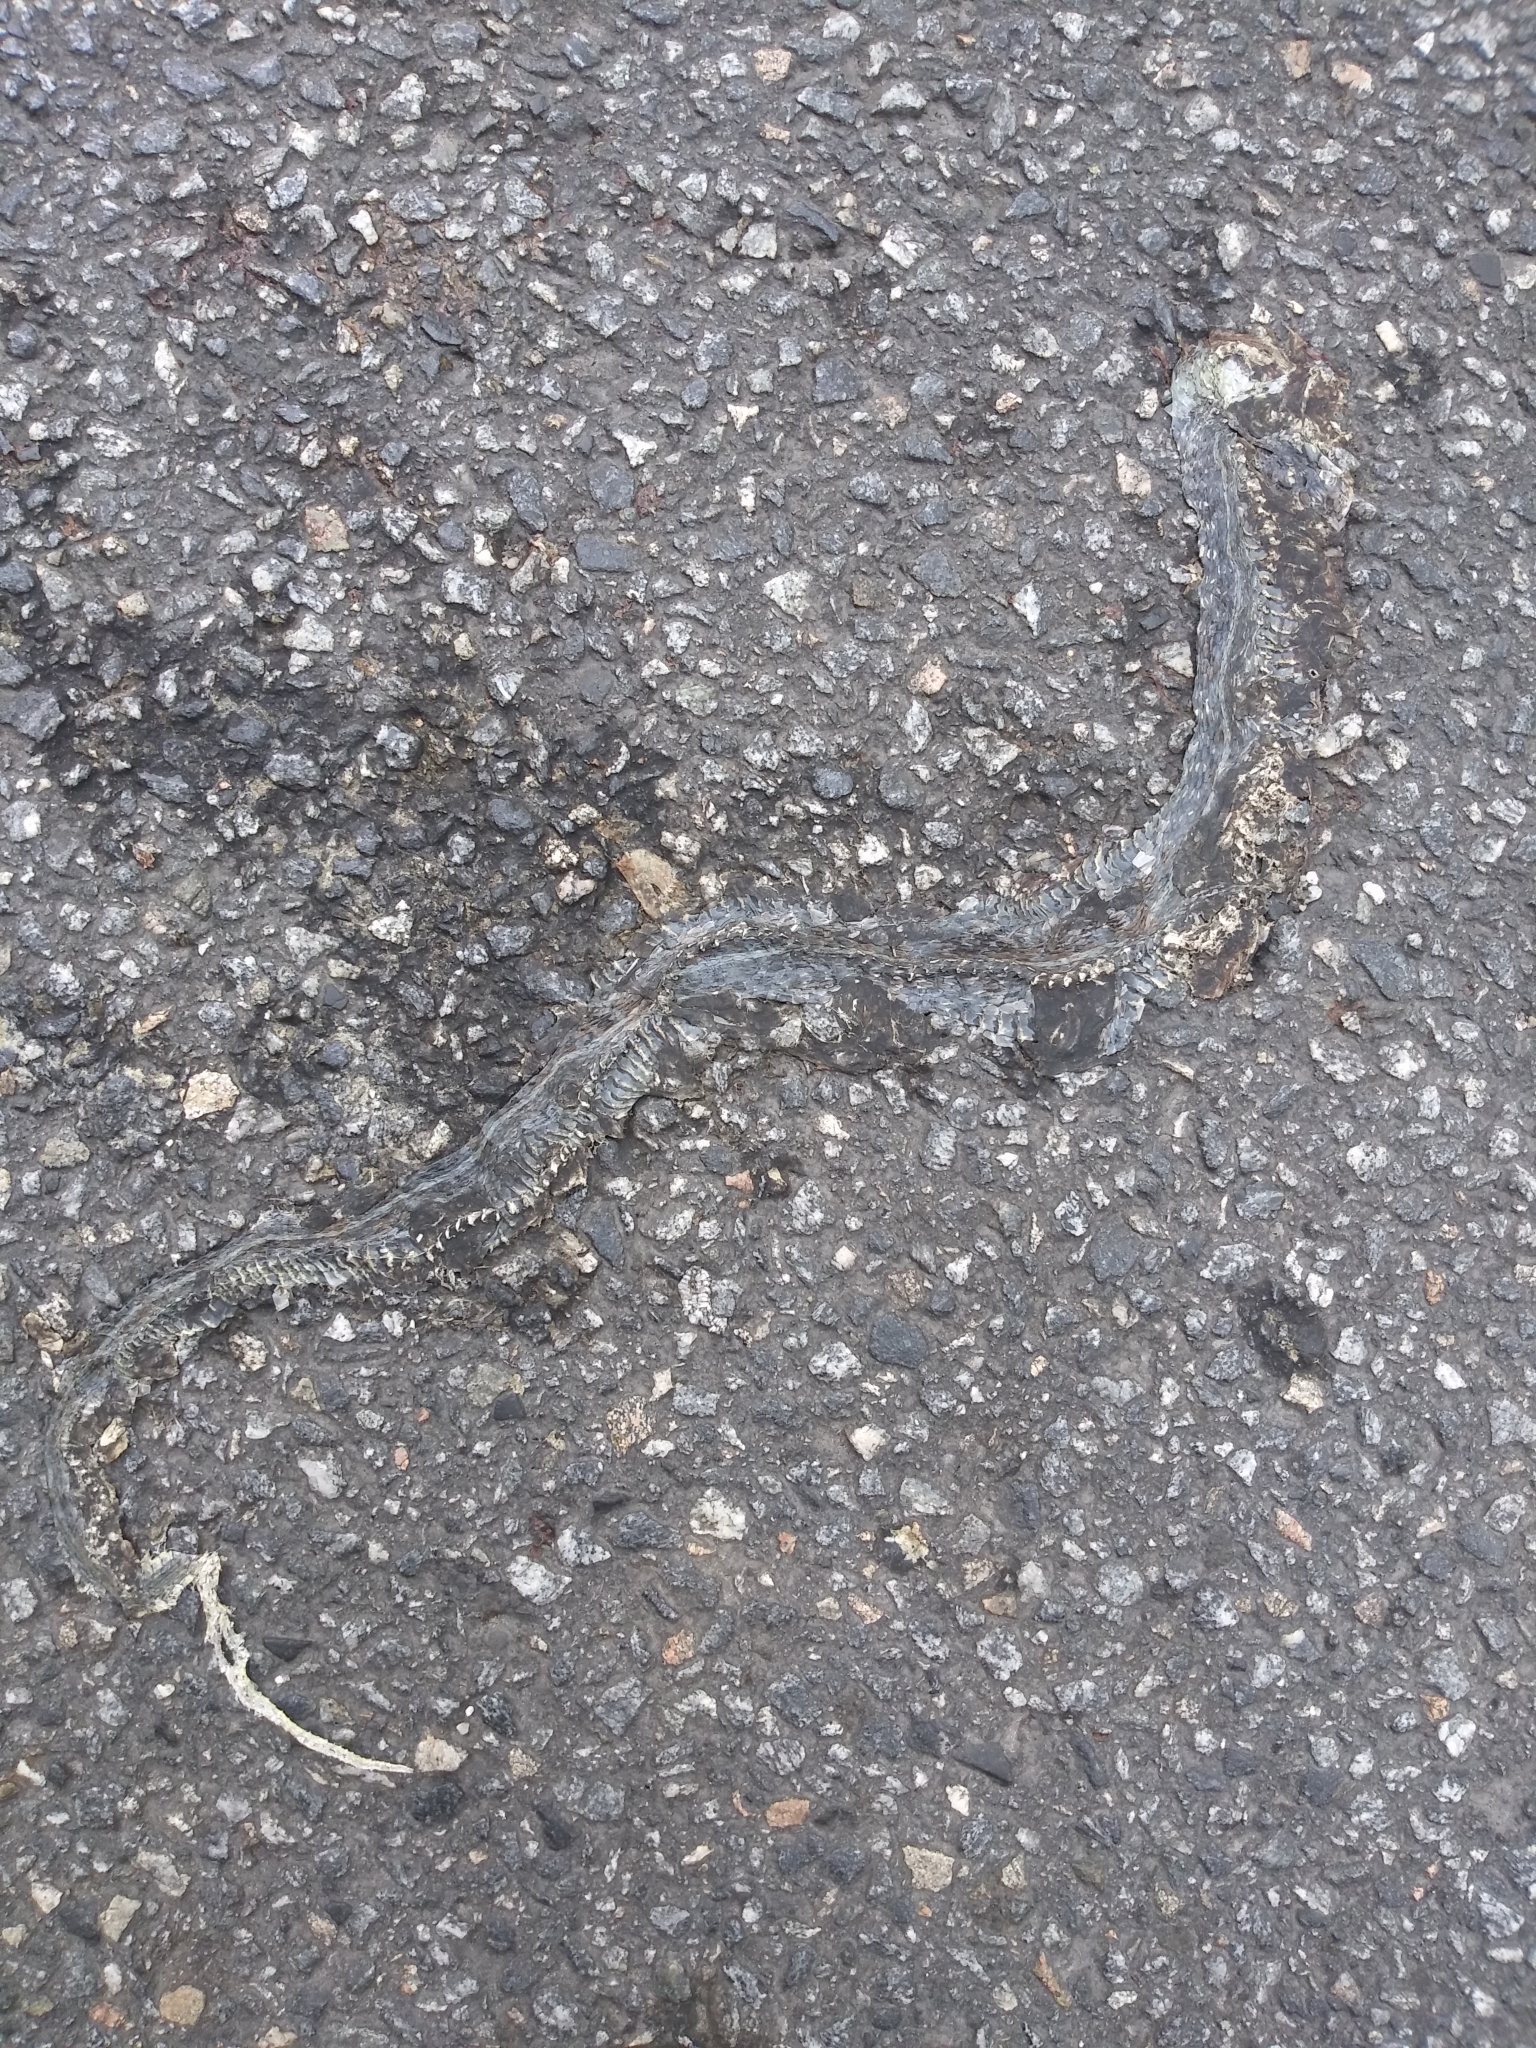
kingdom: Animalia
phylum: Chordata
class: Squamata
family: Colubridae
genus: Thamnophis
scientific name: Thamnophis sirtalis
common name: Common garter snake
